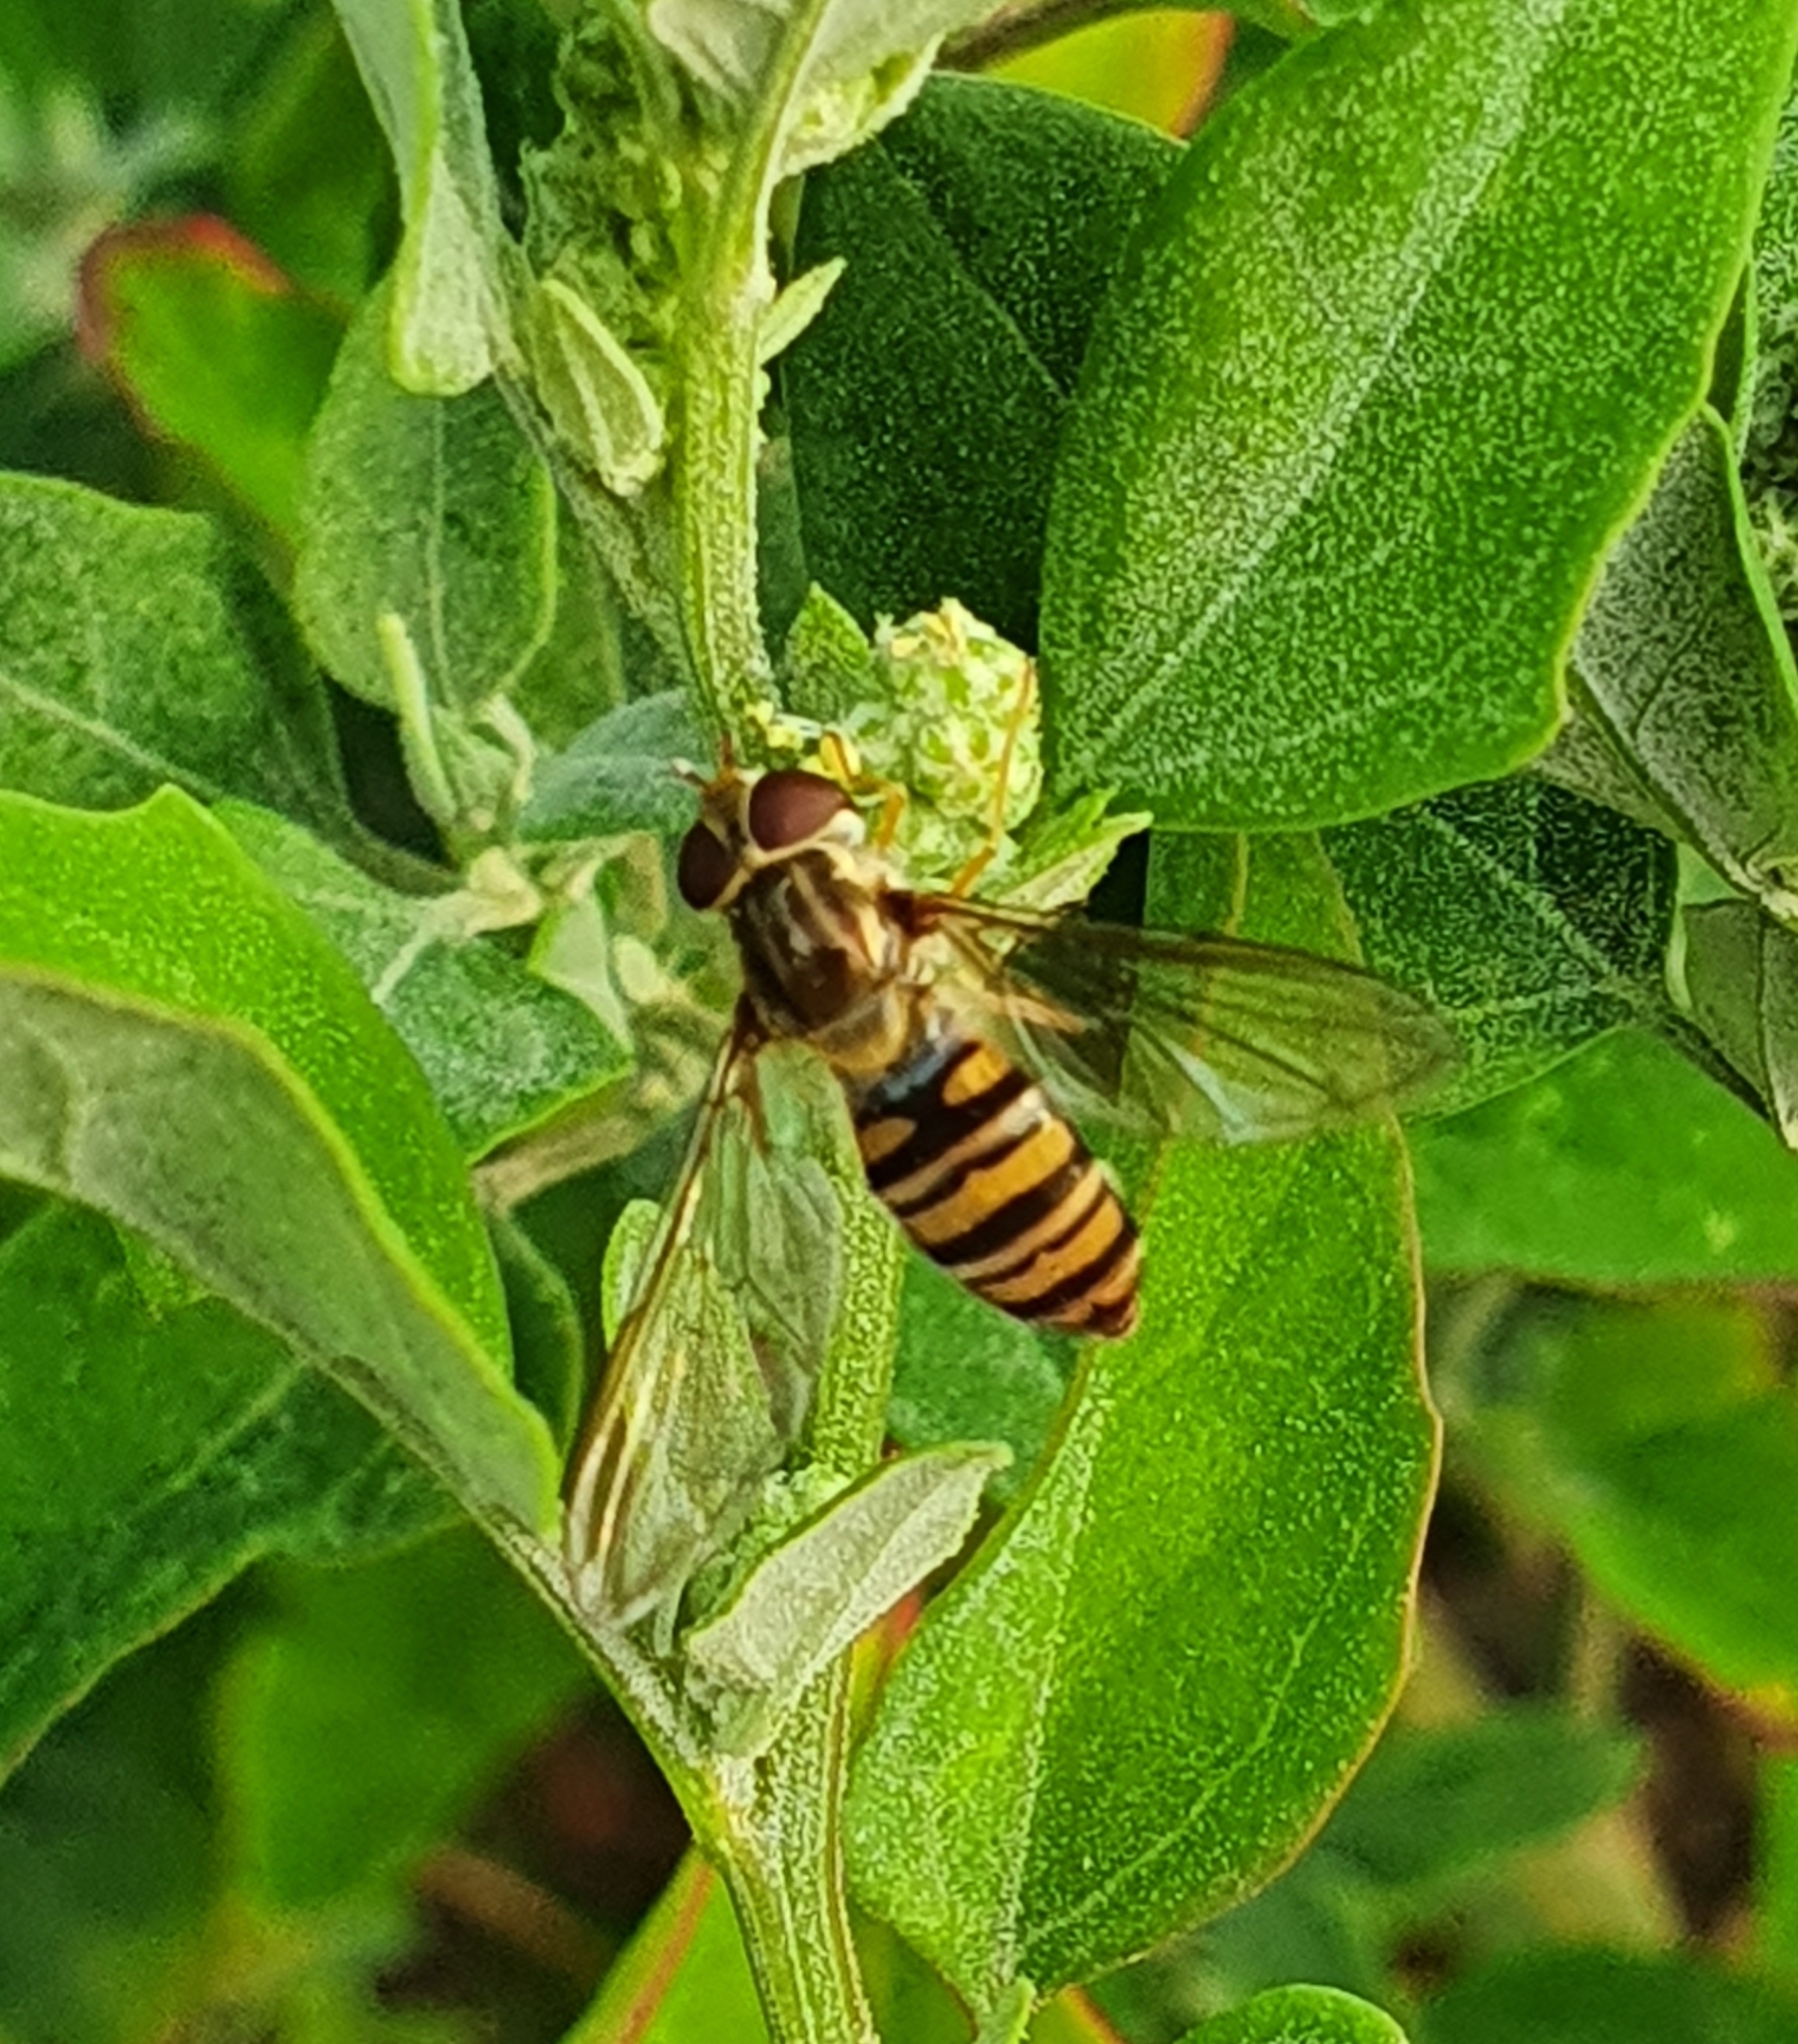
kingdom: Animalia
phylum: Arthropoda
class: Insecta
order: Diptera
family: Syrphidae
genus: Episyrphus
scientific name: Episyrphus balteatus
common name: Marmalade hoverfly
